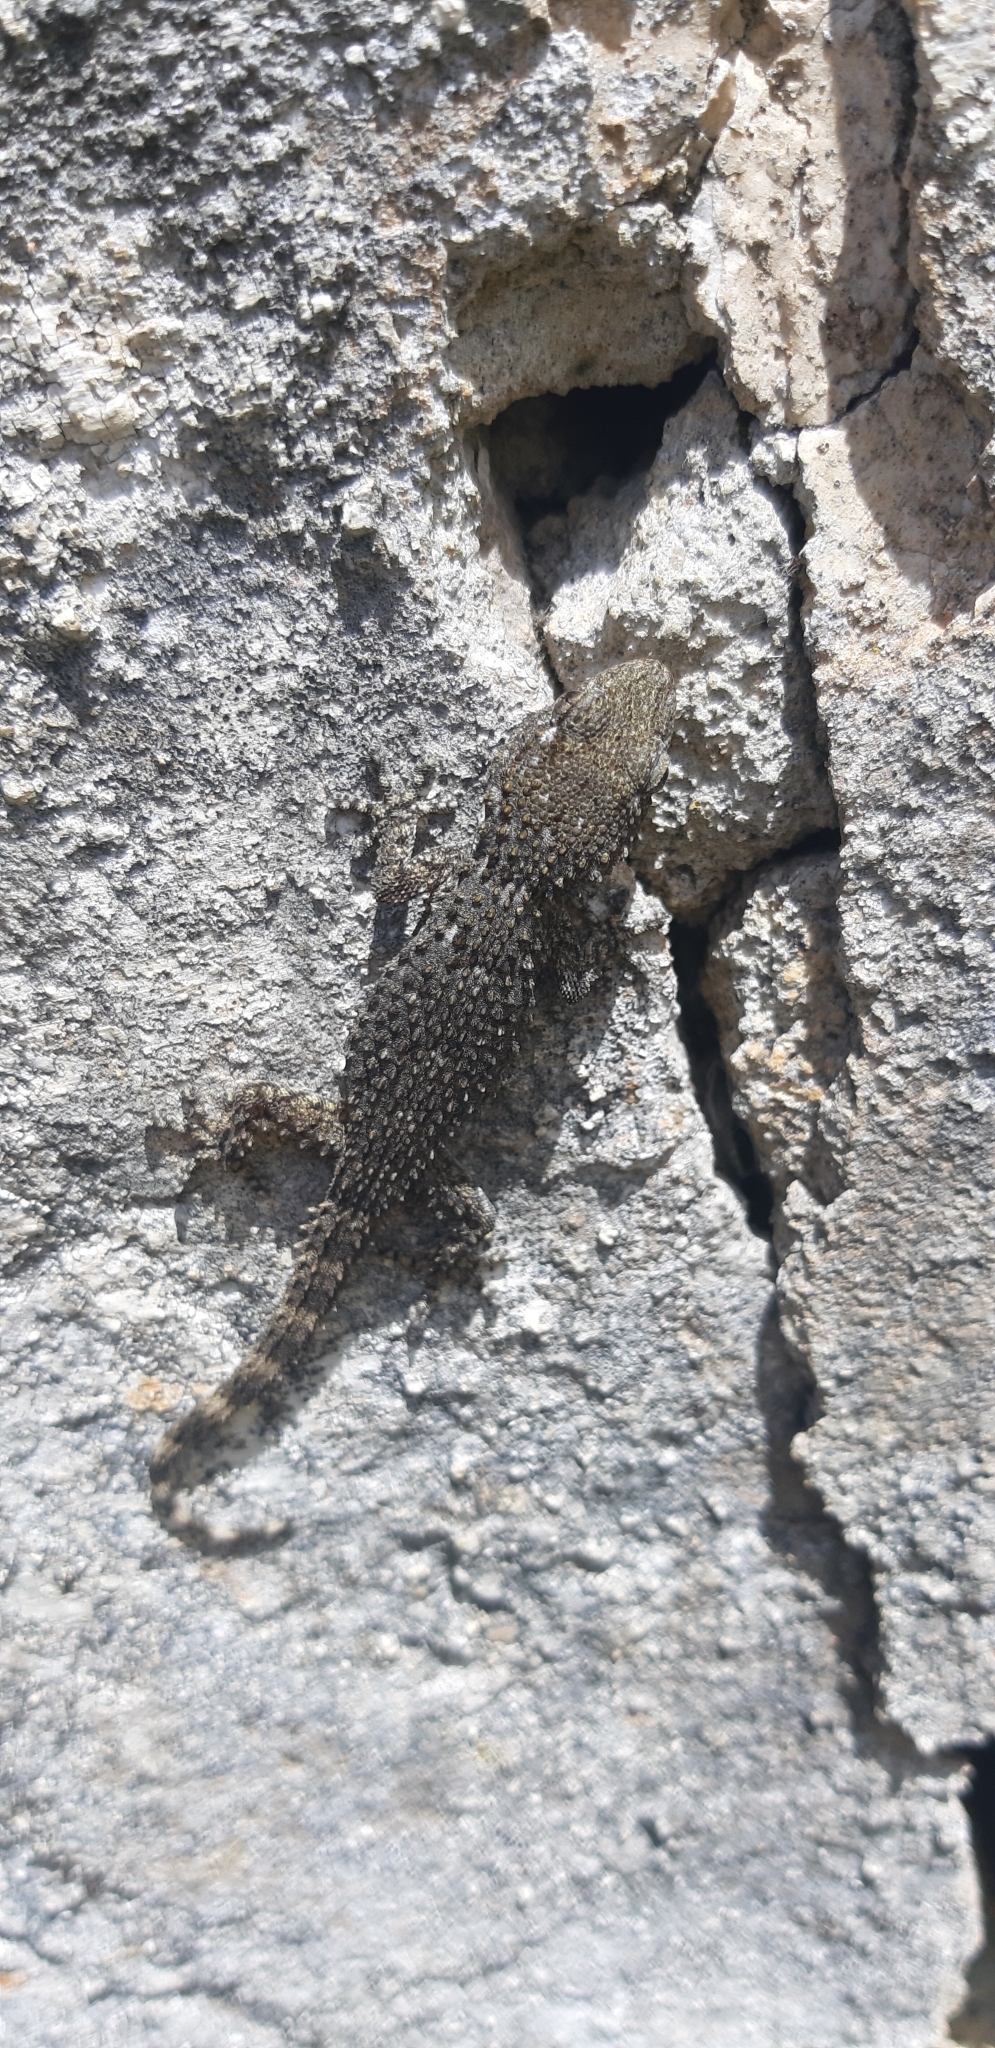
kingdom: Animalia
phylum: Chordata
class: Squamata
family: Phyllodactylidae
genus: Tarentola
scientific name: Tarentola mauritanica
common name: Moorish gecko
